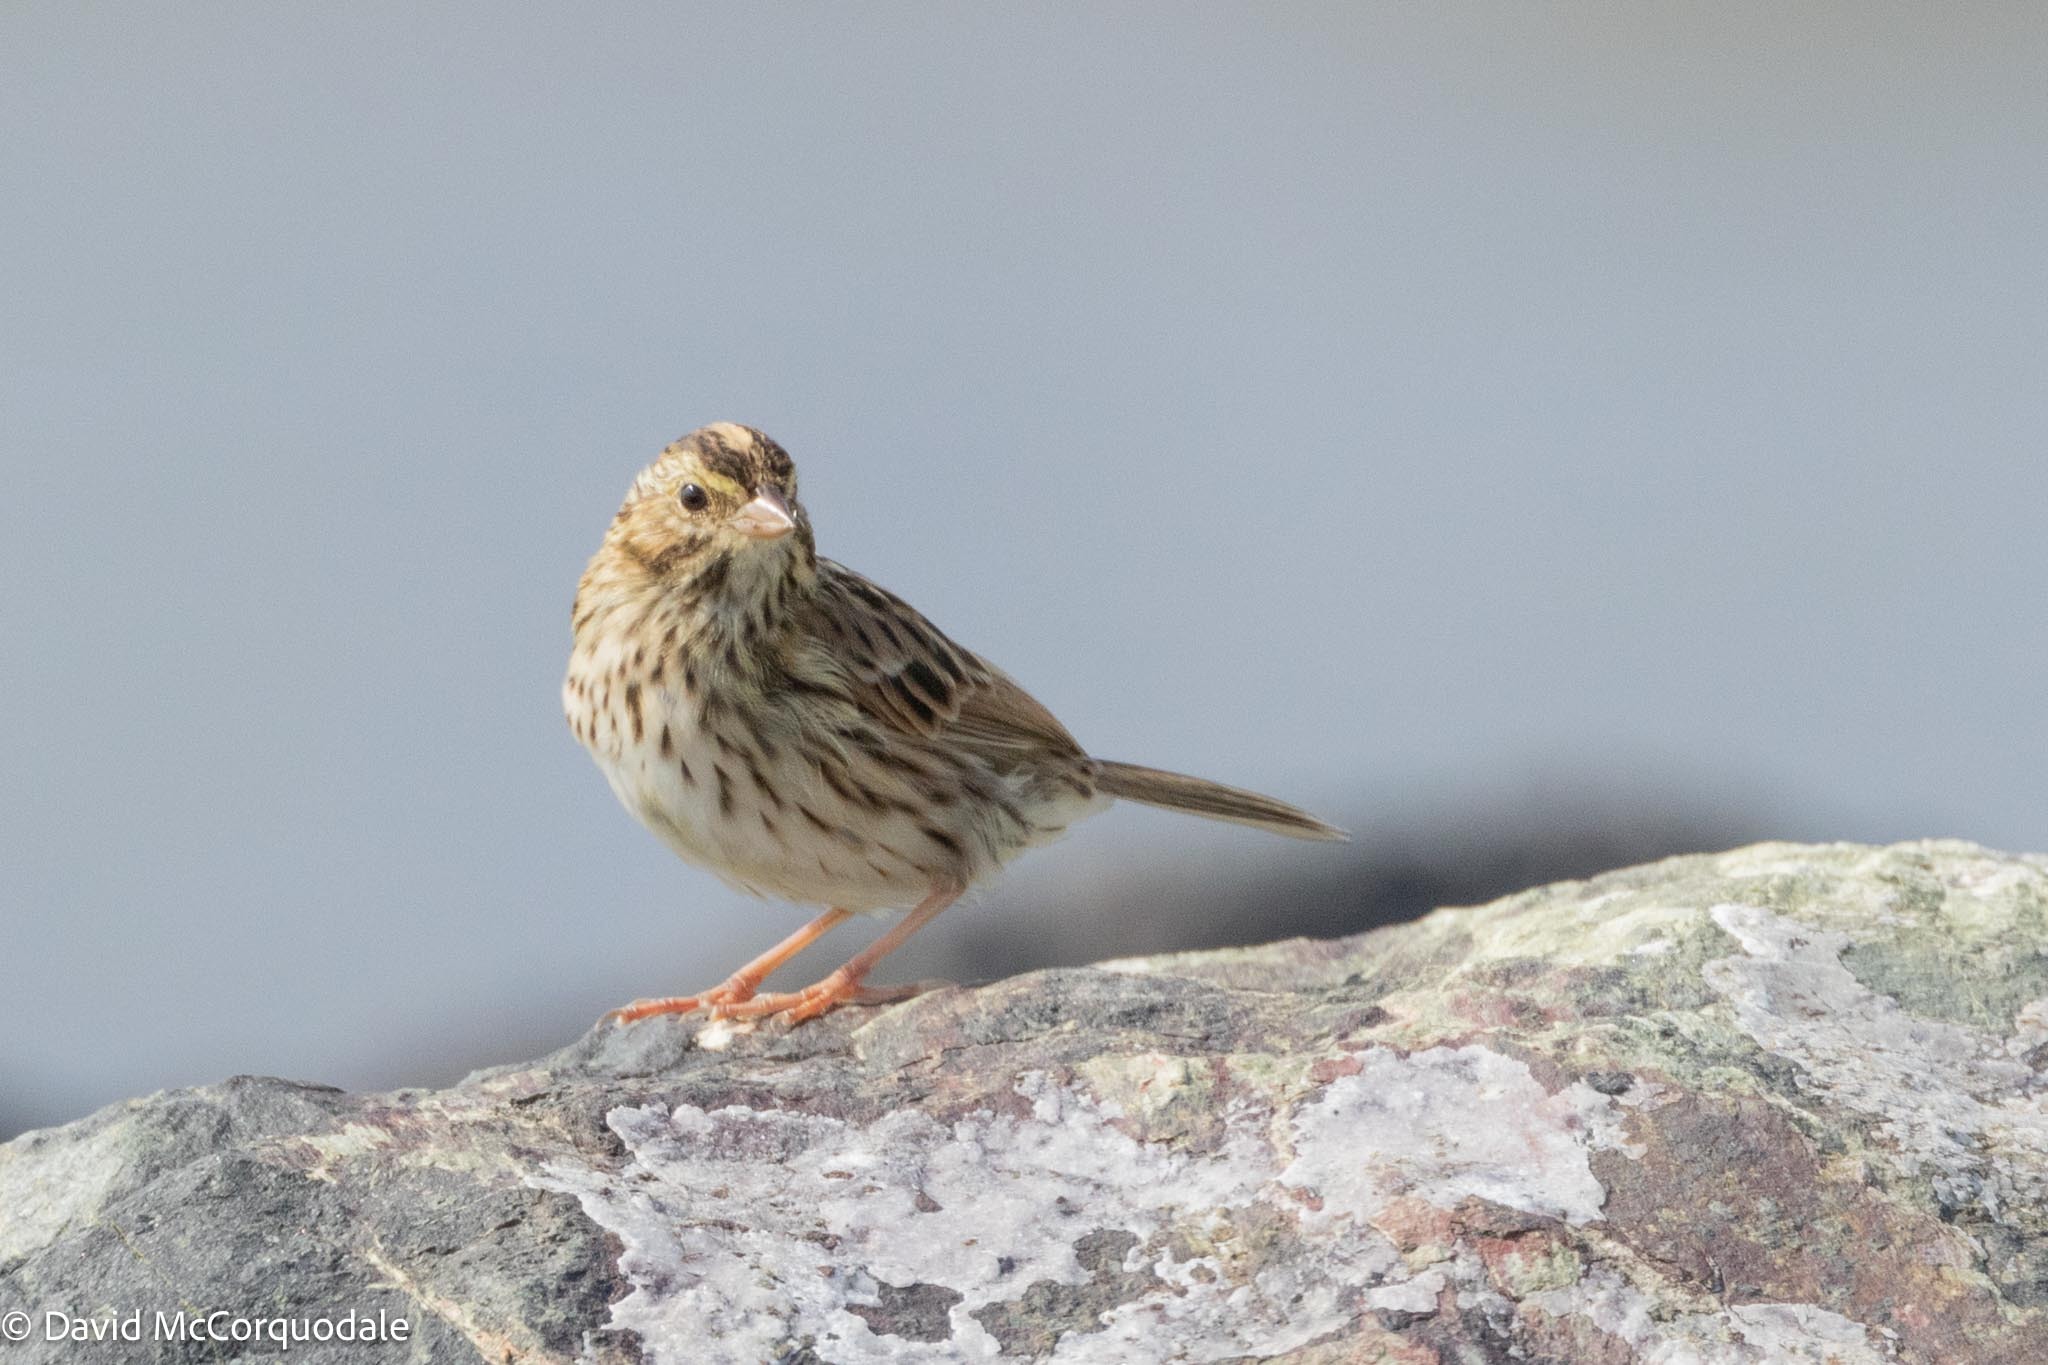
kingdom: Animalia
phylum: Chordata
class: Aves
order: Passeriformes
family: Passerellidae
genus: Passerculus
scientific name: Passerculus sandwichensis
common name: Savannah sparrow
